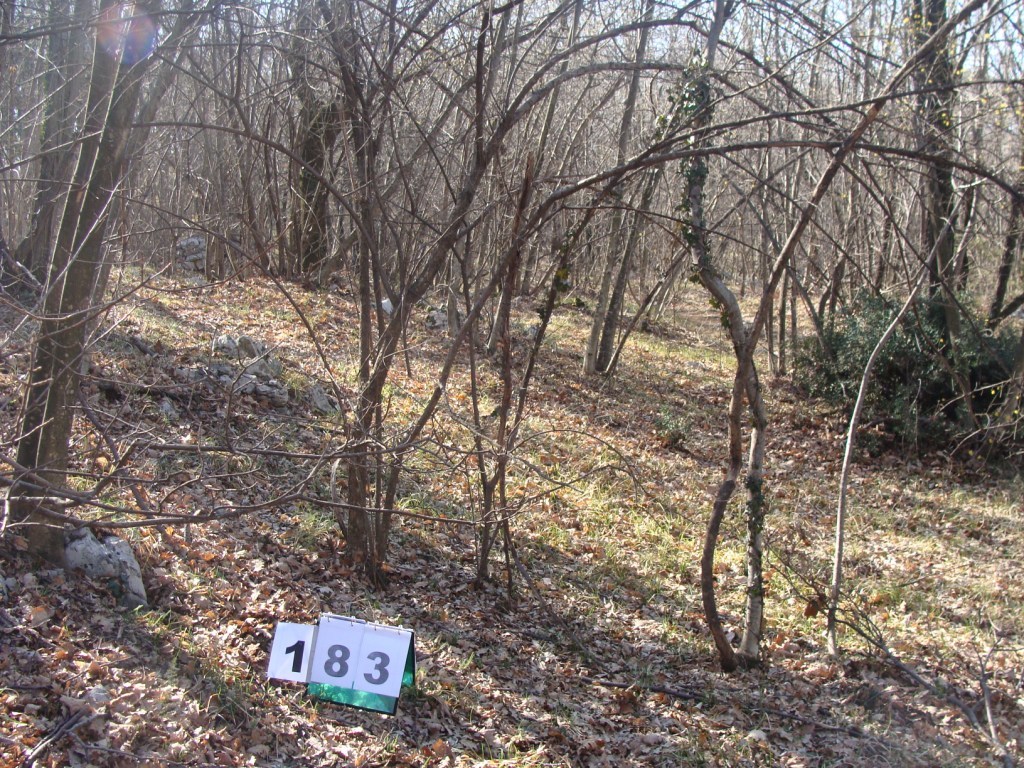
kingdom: Plantae
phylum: Tracheophyta
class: Magnoliopsida
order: Cornales
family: Cornaceae
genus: Cornus
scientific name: Cornus mas
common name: Cornelian-cherry
